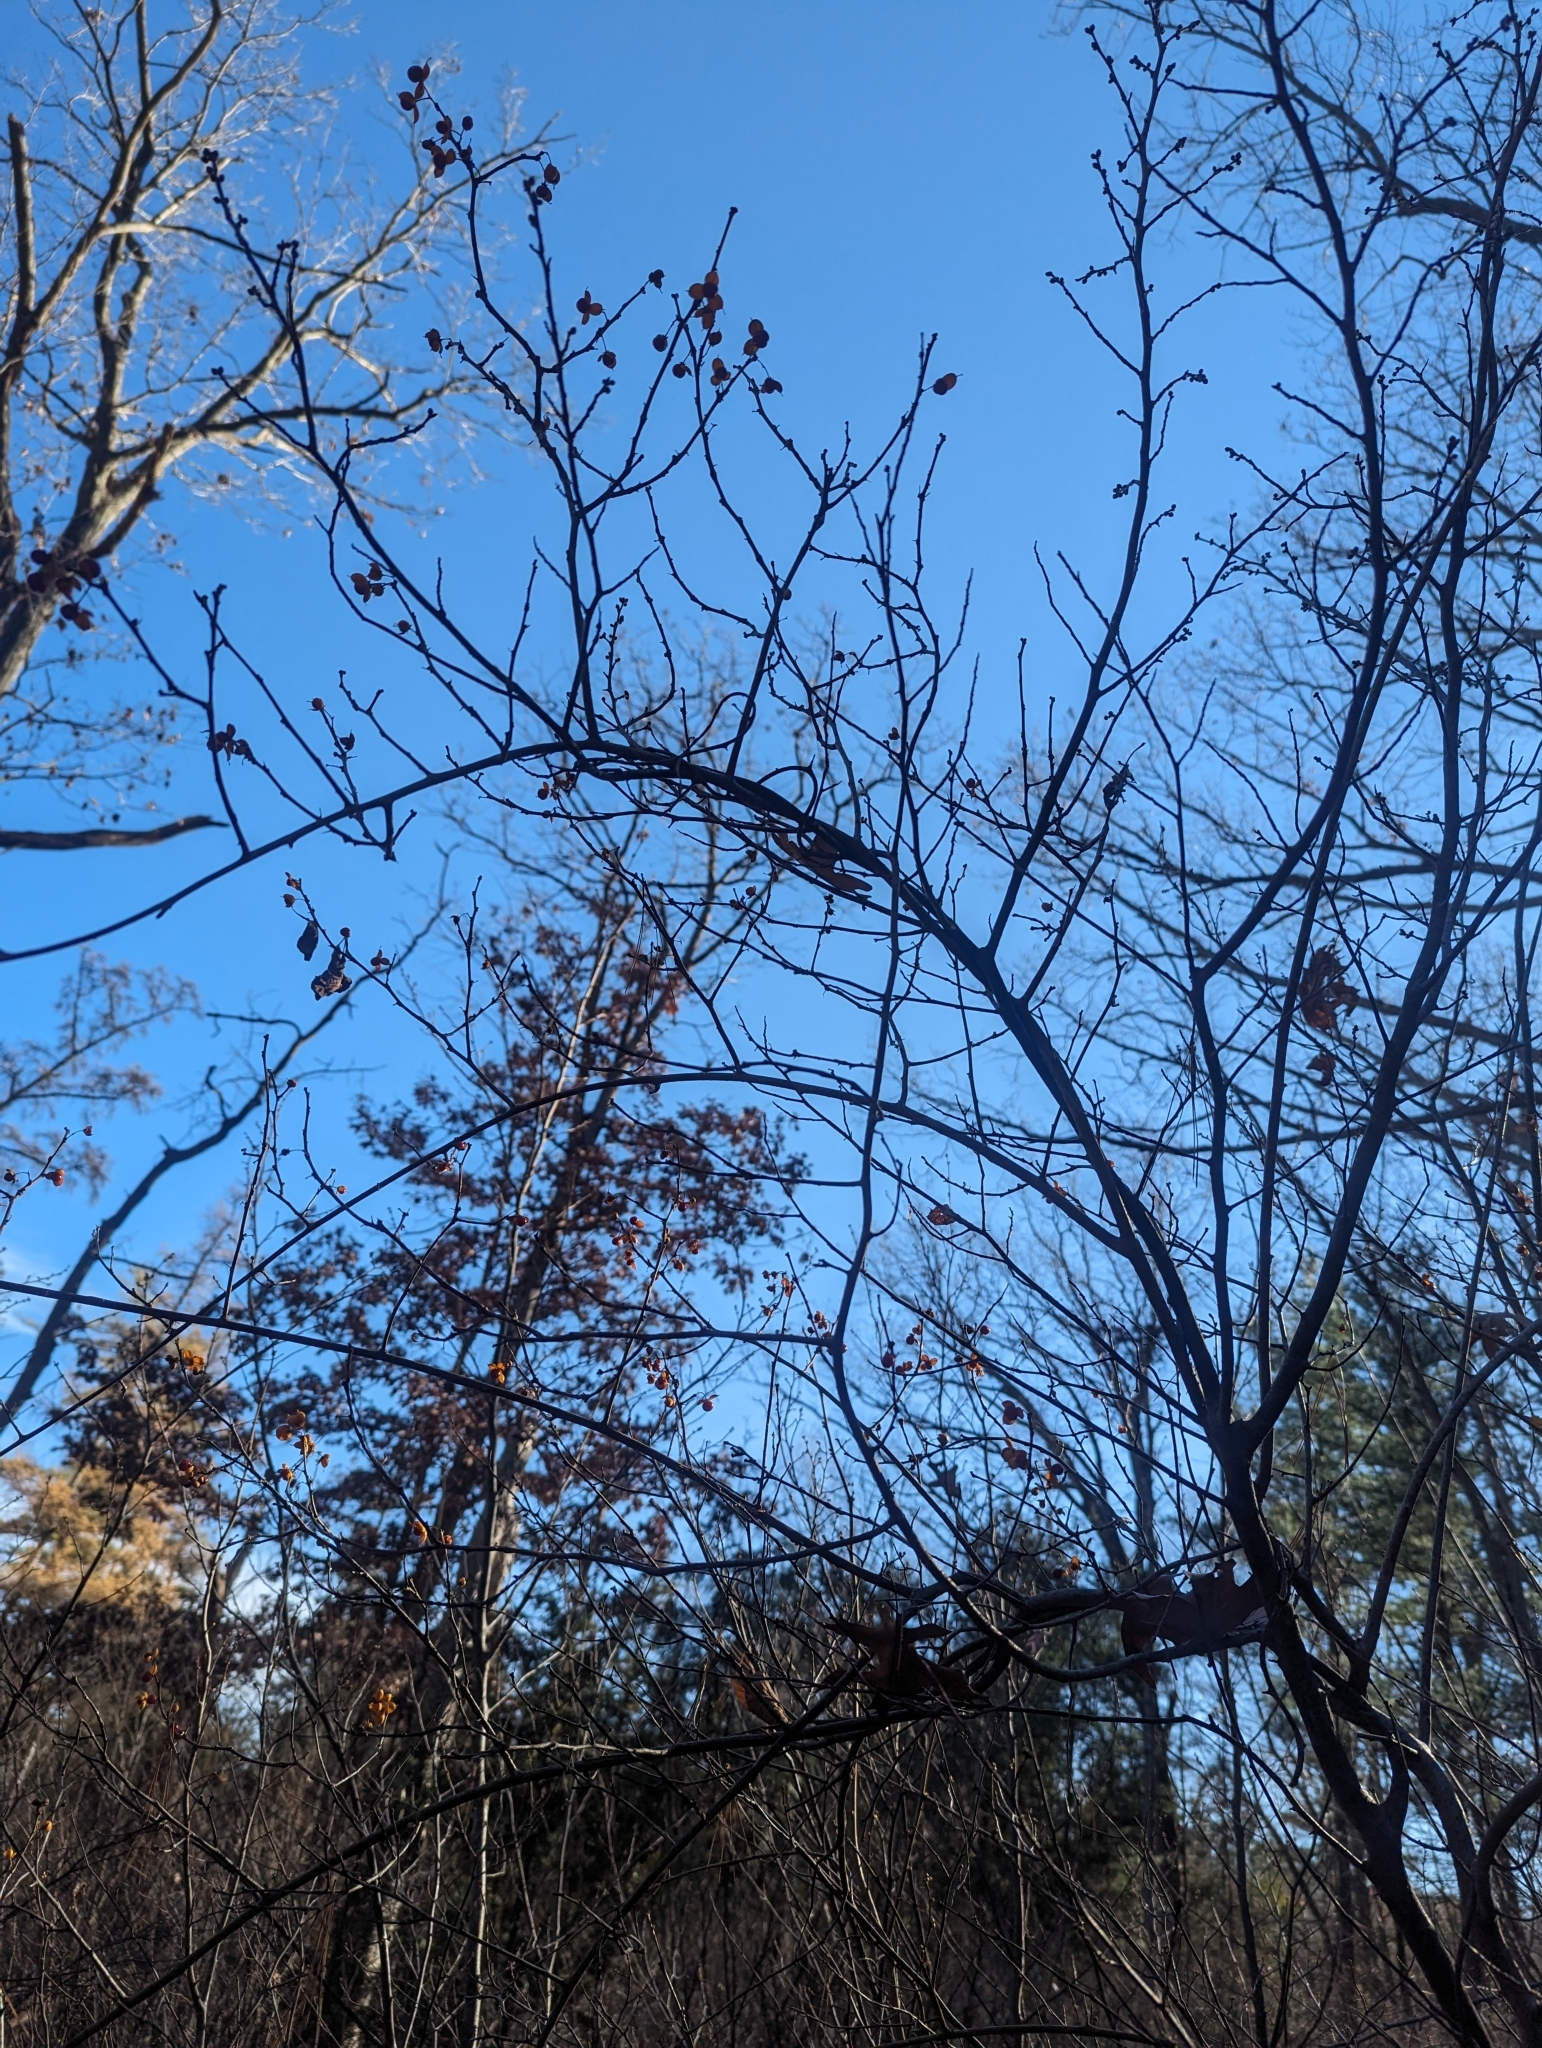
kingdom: Plantae
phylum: Tracheophyta
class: Magnoliopsida
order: Celastrales
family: Celastraceae
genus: Celastrus
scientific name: Celastrus scandens
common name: American bittersweet
